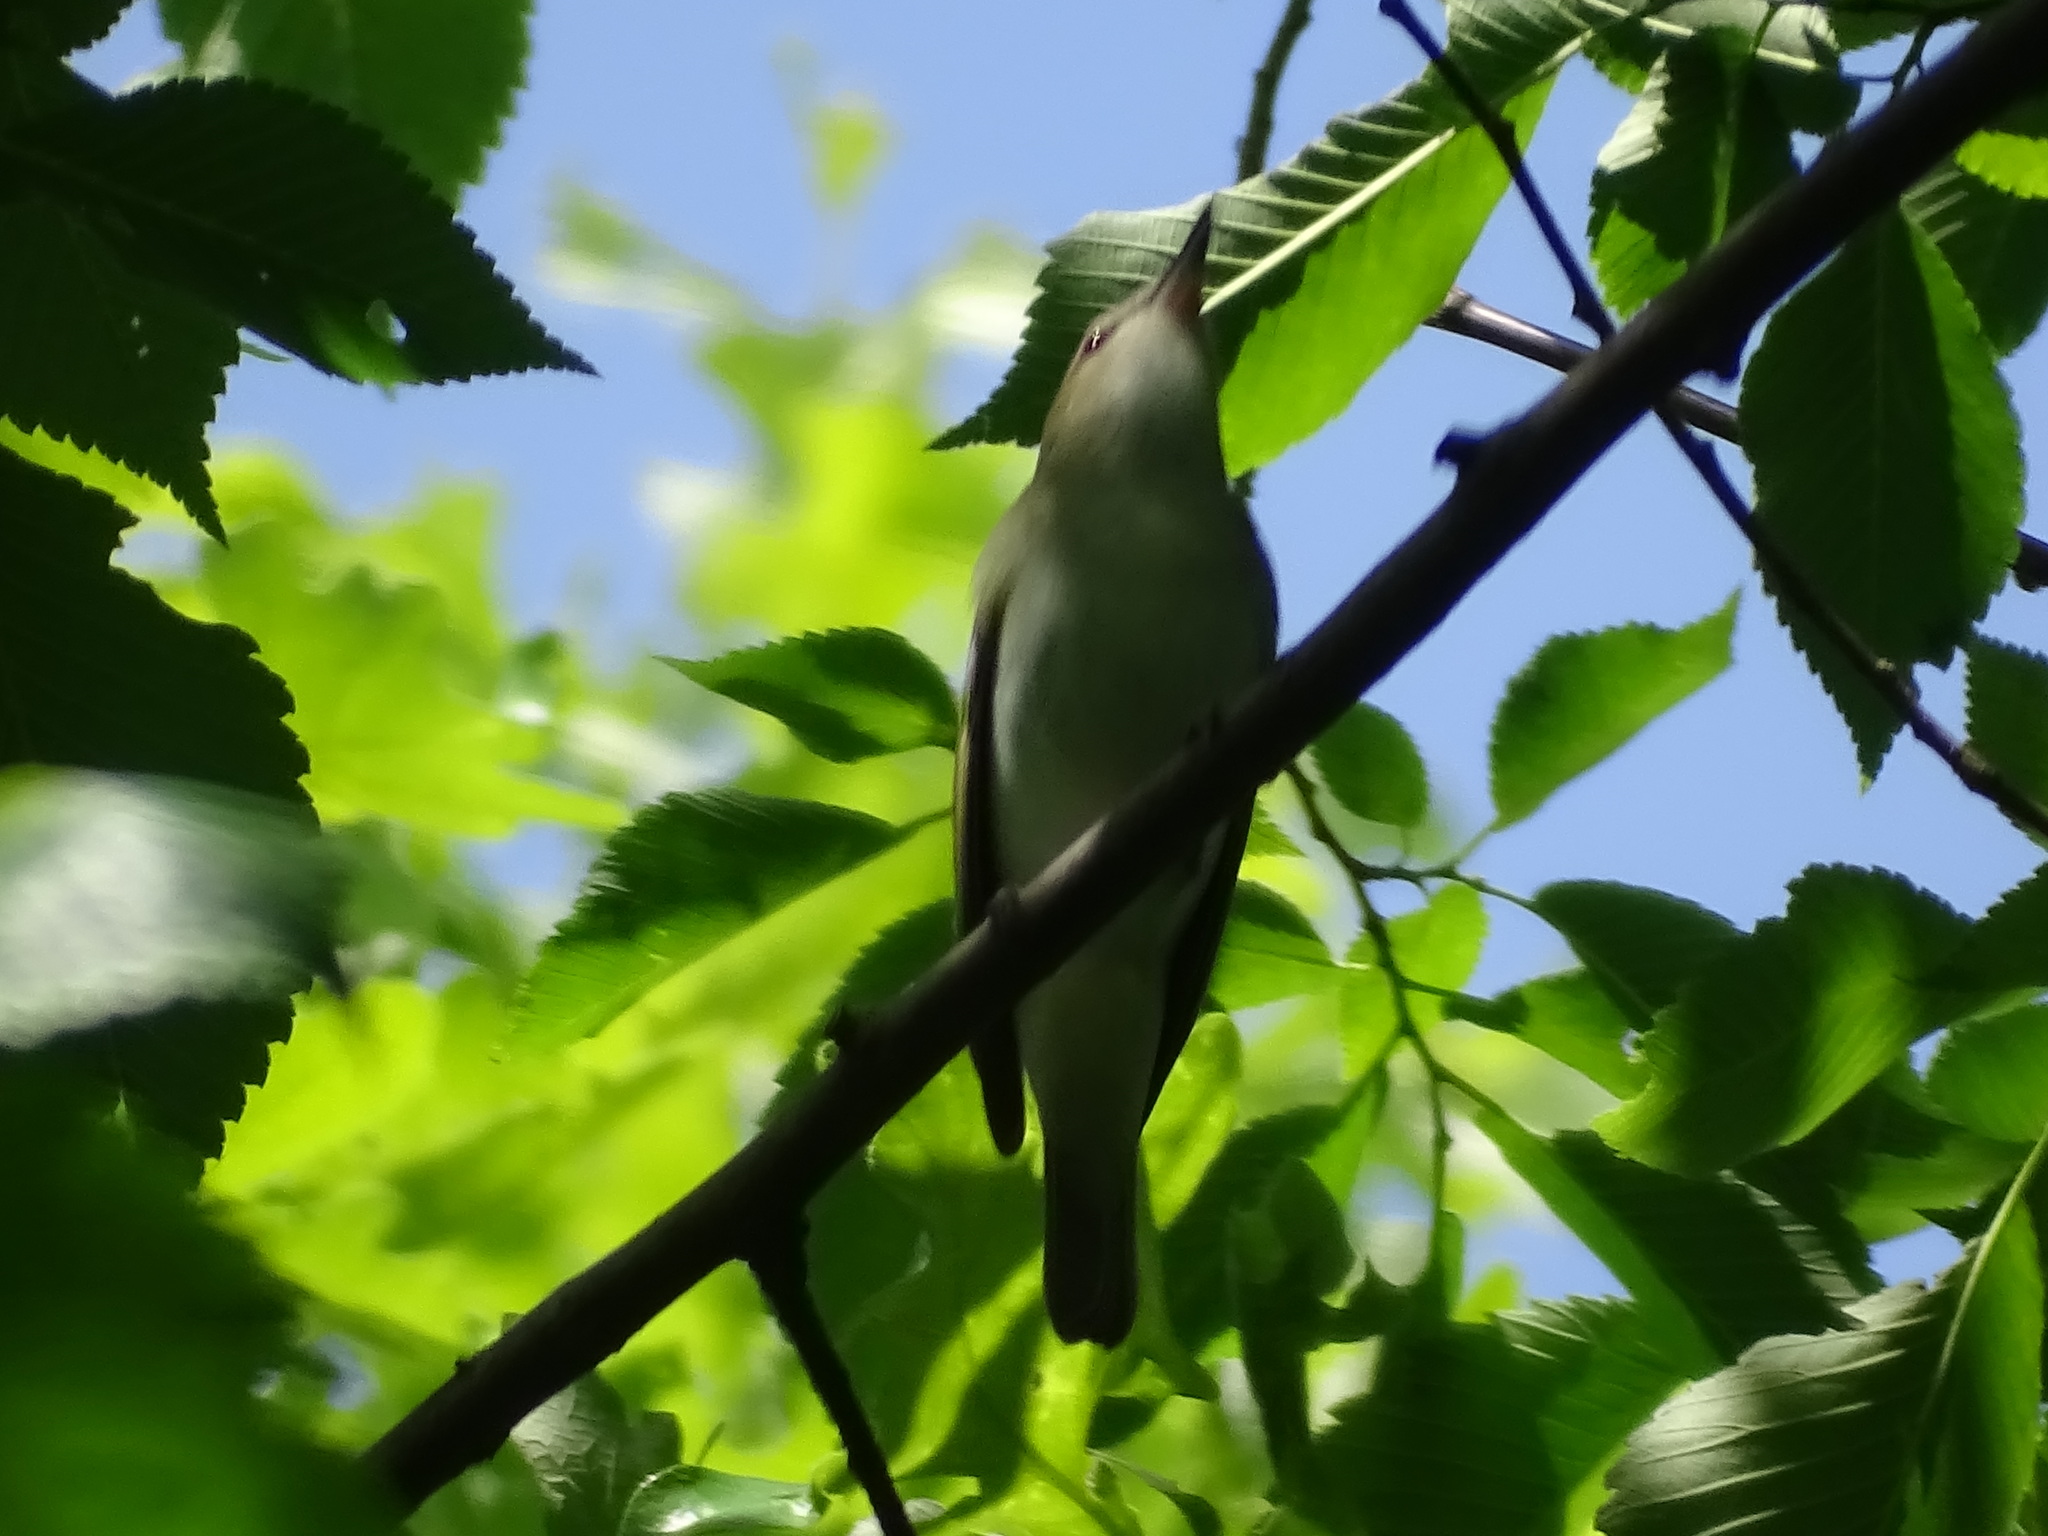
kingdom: Animalia
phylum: Chordata
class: Aves
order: Passeriformes
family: Vireonidae
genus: Vireo
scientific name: Vireo olivaceus
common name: Red-eyed vireo
